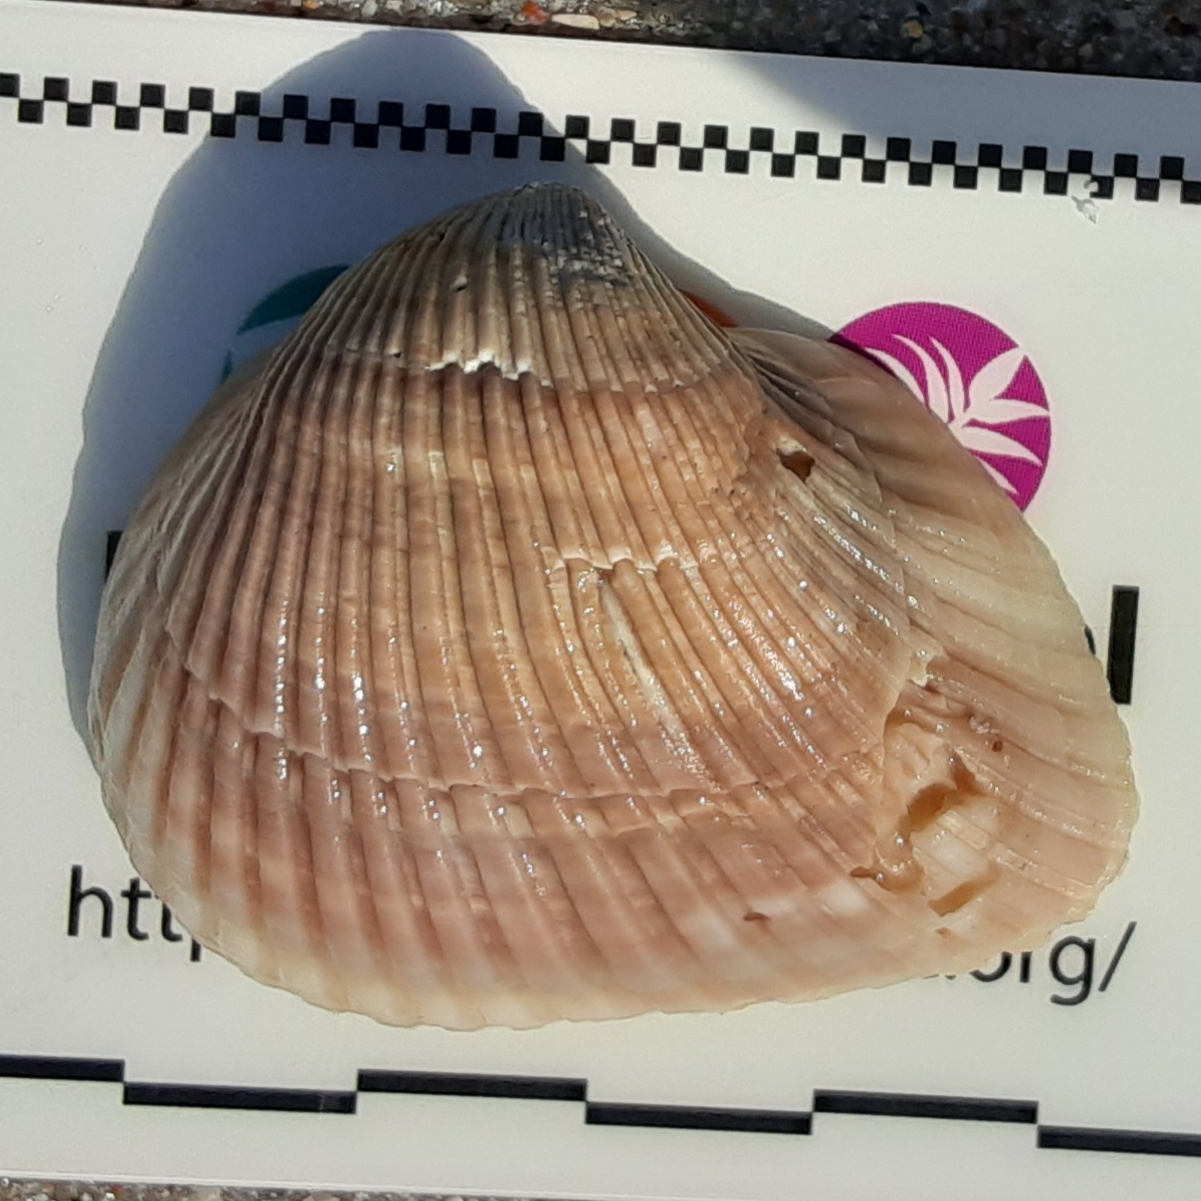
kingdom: Animalia
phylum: Mollusca
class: Bivalvia
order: Arcida
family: Noetiidae
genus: Noetia
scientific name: Noetia ponderosa
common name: Ponderous ark
